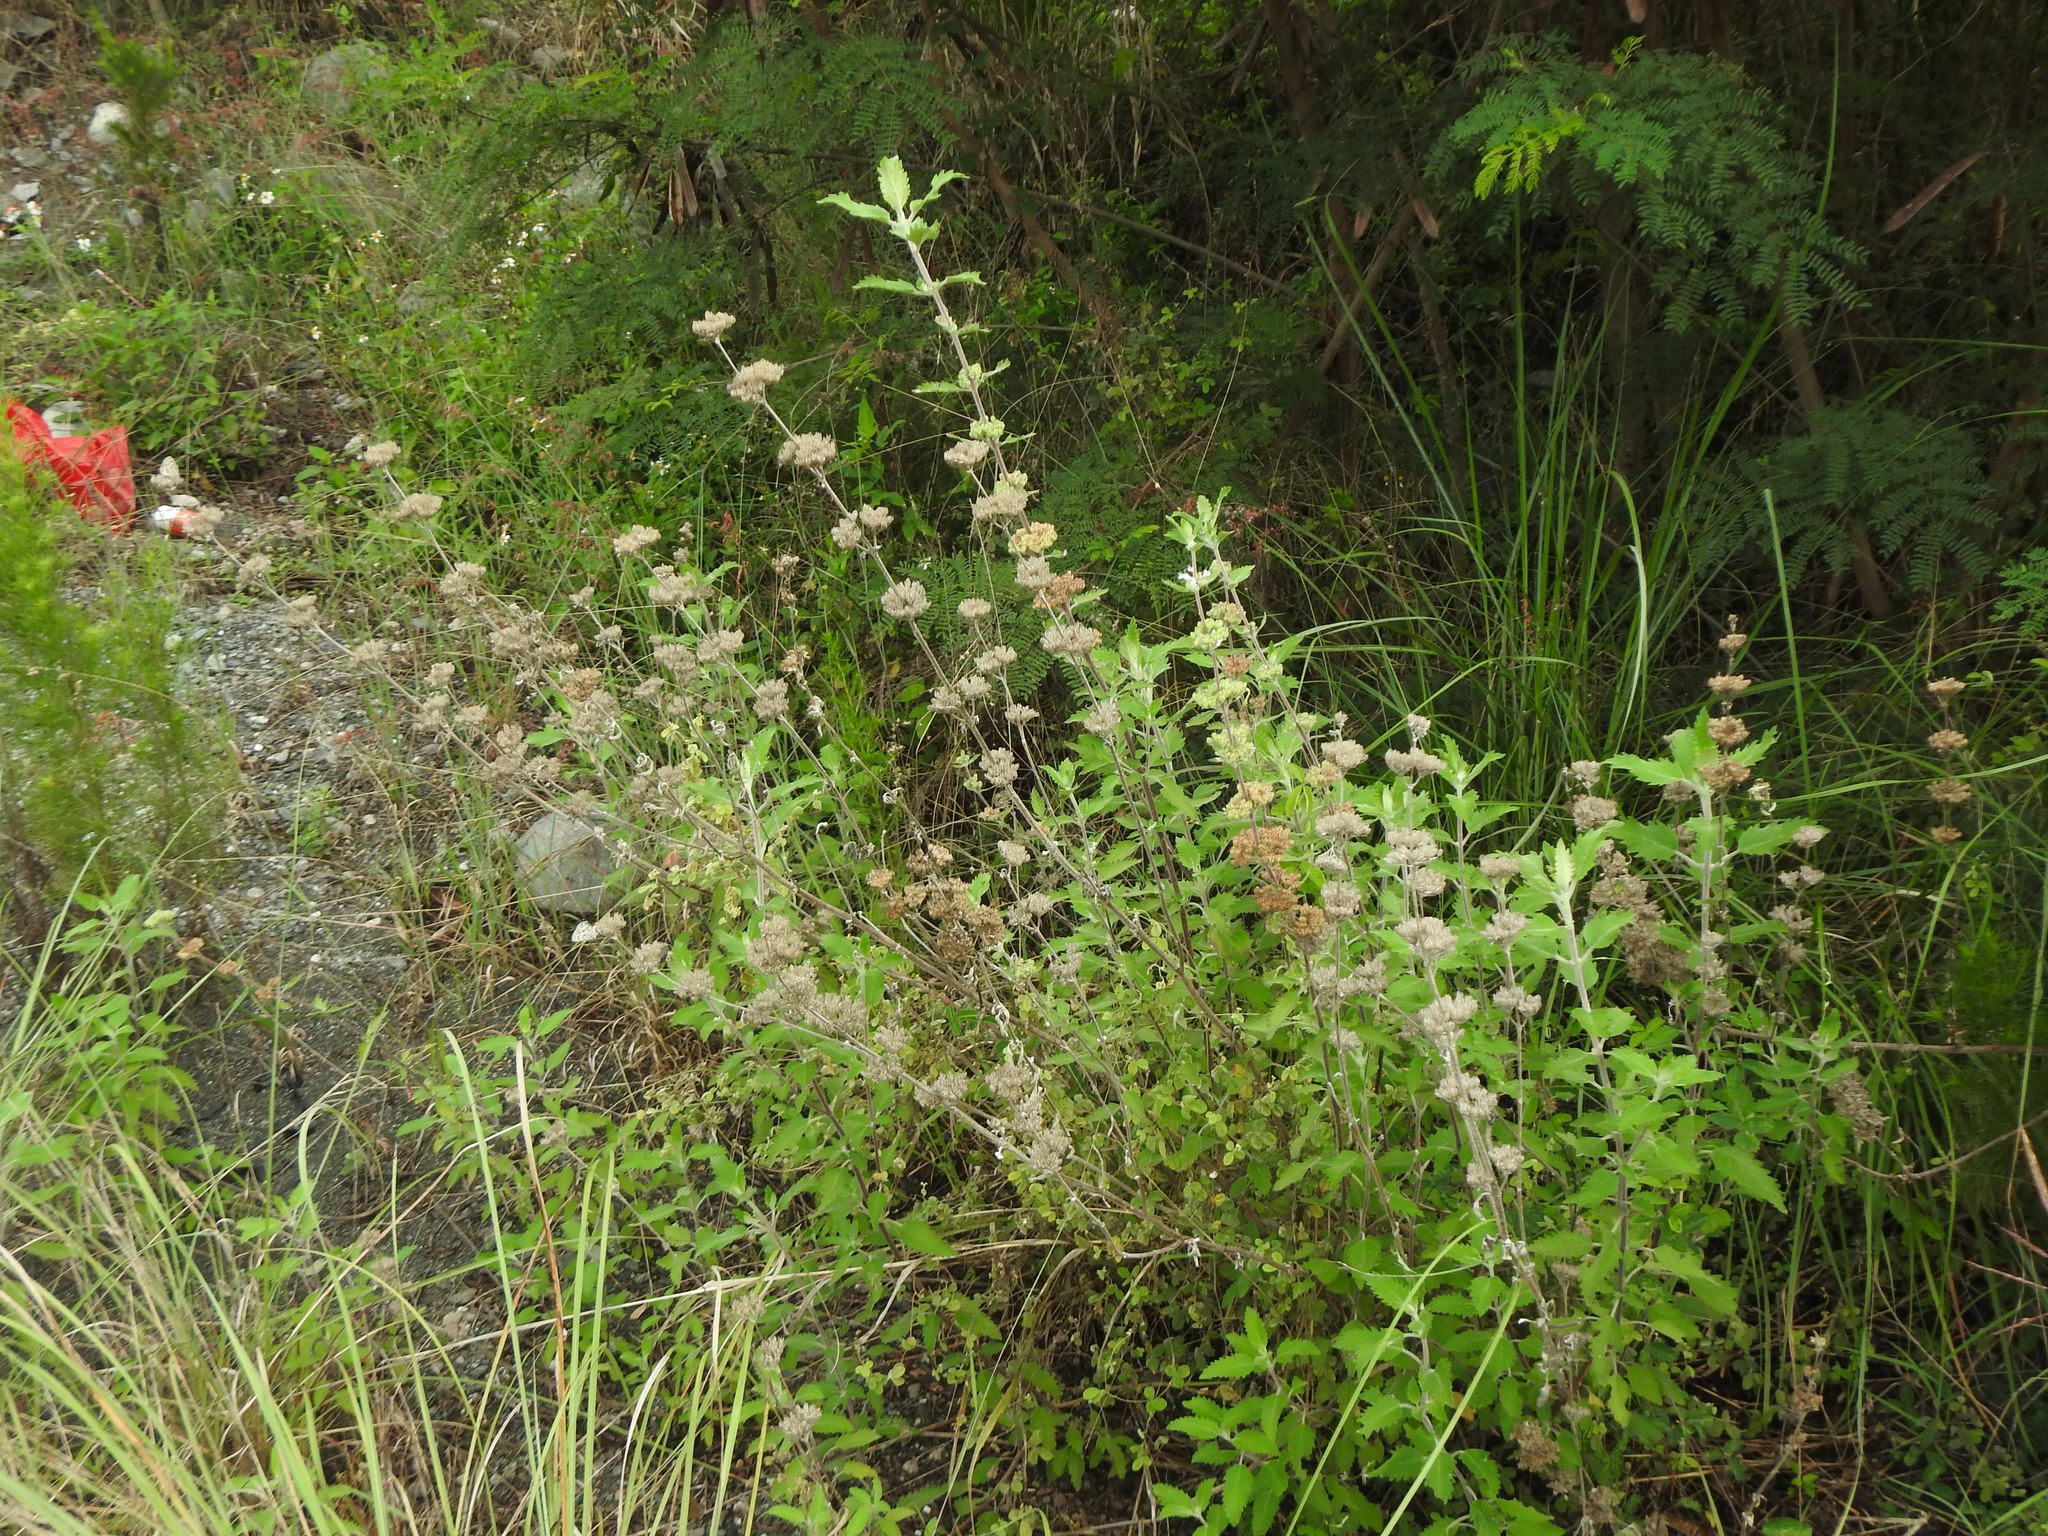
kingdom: Plantae
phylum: Tracheophyta
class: Magnoliopsida
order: Lamiales
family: Lamiaceae
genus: Caryopteris
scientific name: Caryopteris incana
